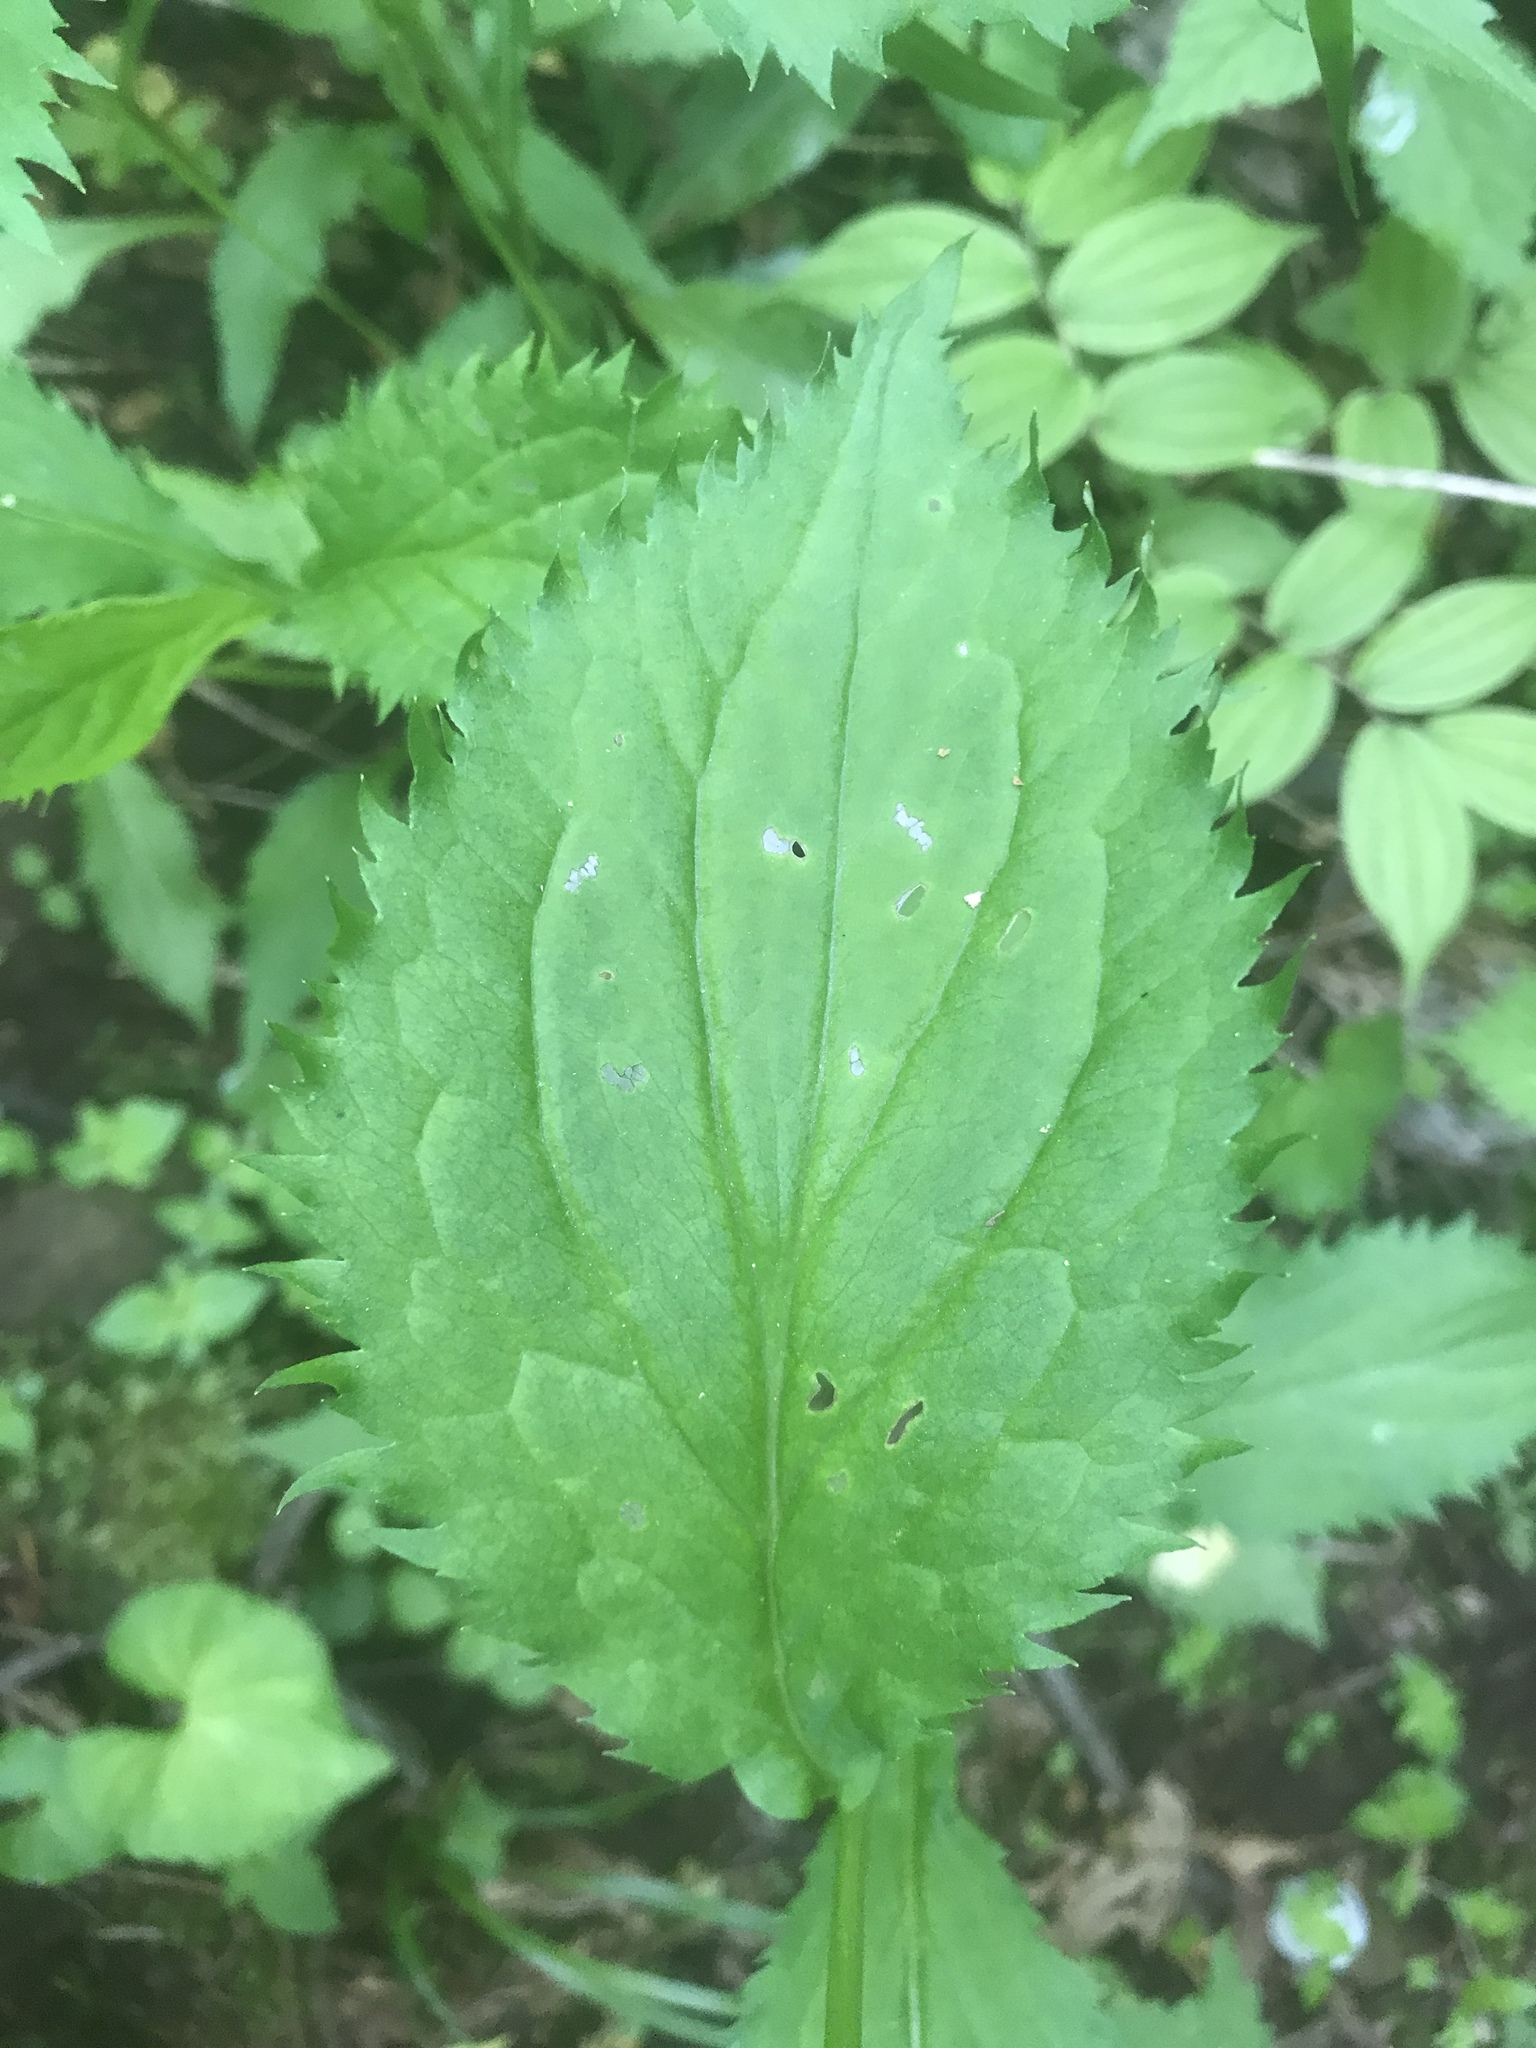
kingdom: Plantae
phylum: Tracheophyta
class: Magnoliopsida
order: Asterales
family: Asteraceae
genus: Solidago
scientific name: Solidago flexicaulis
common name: Zig-zag goldenrod
